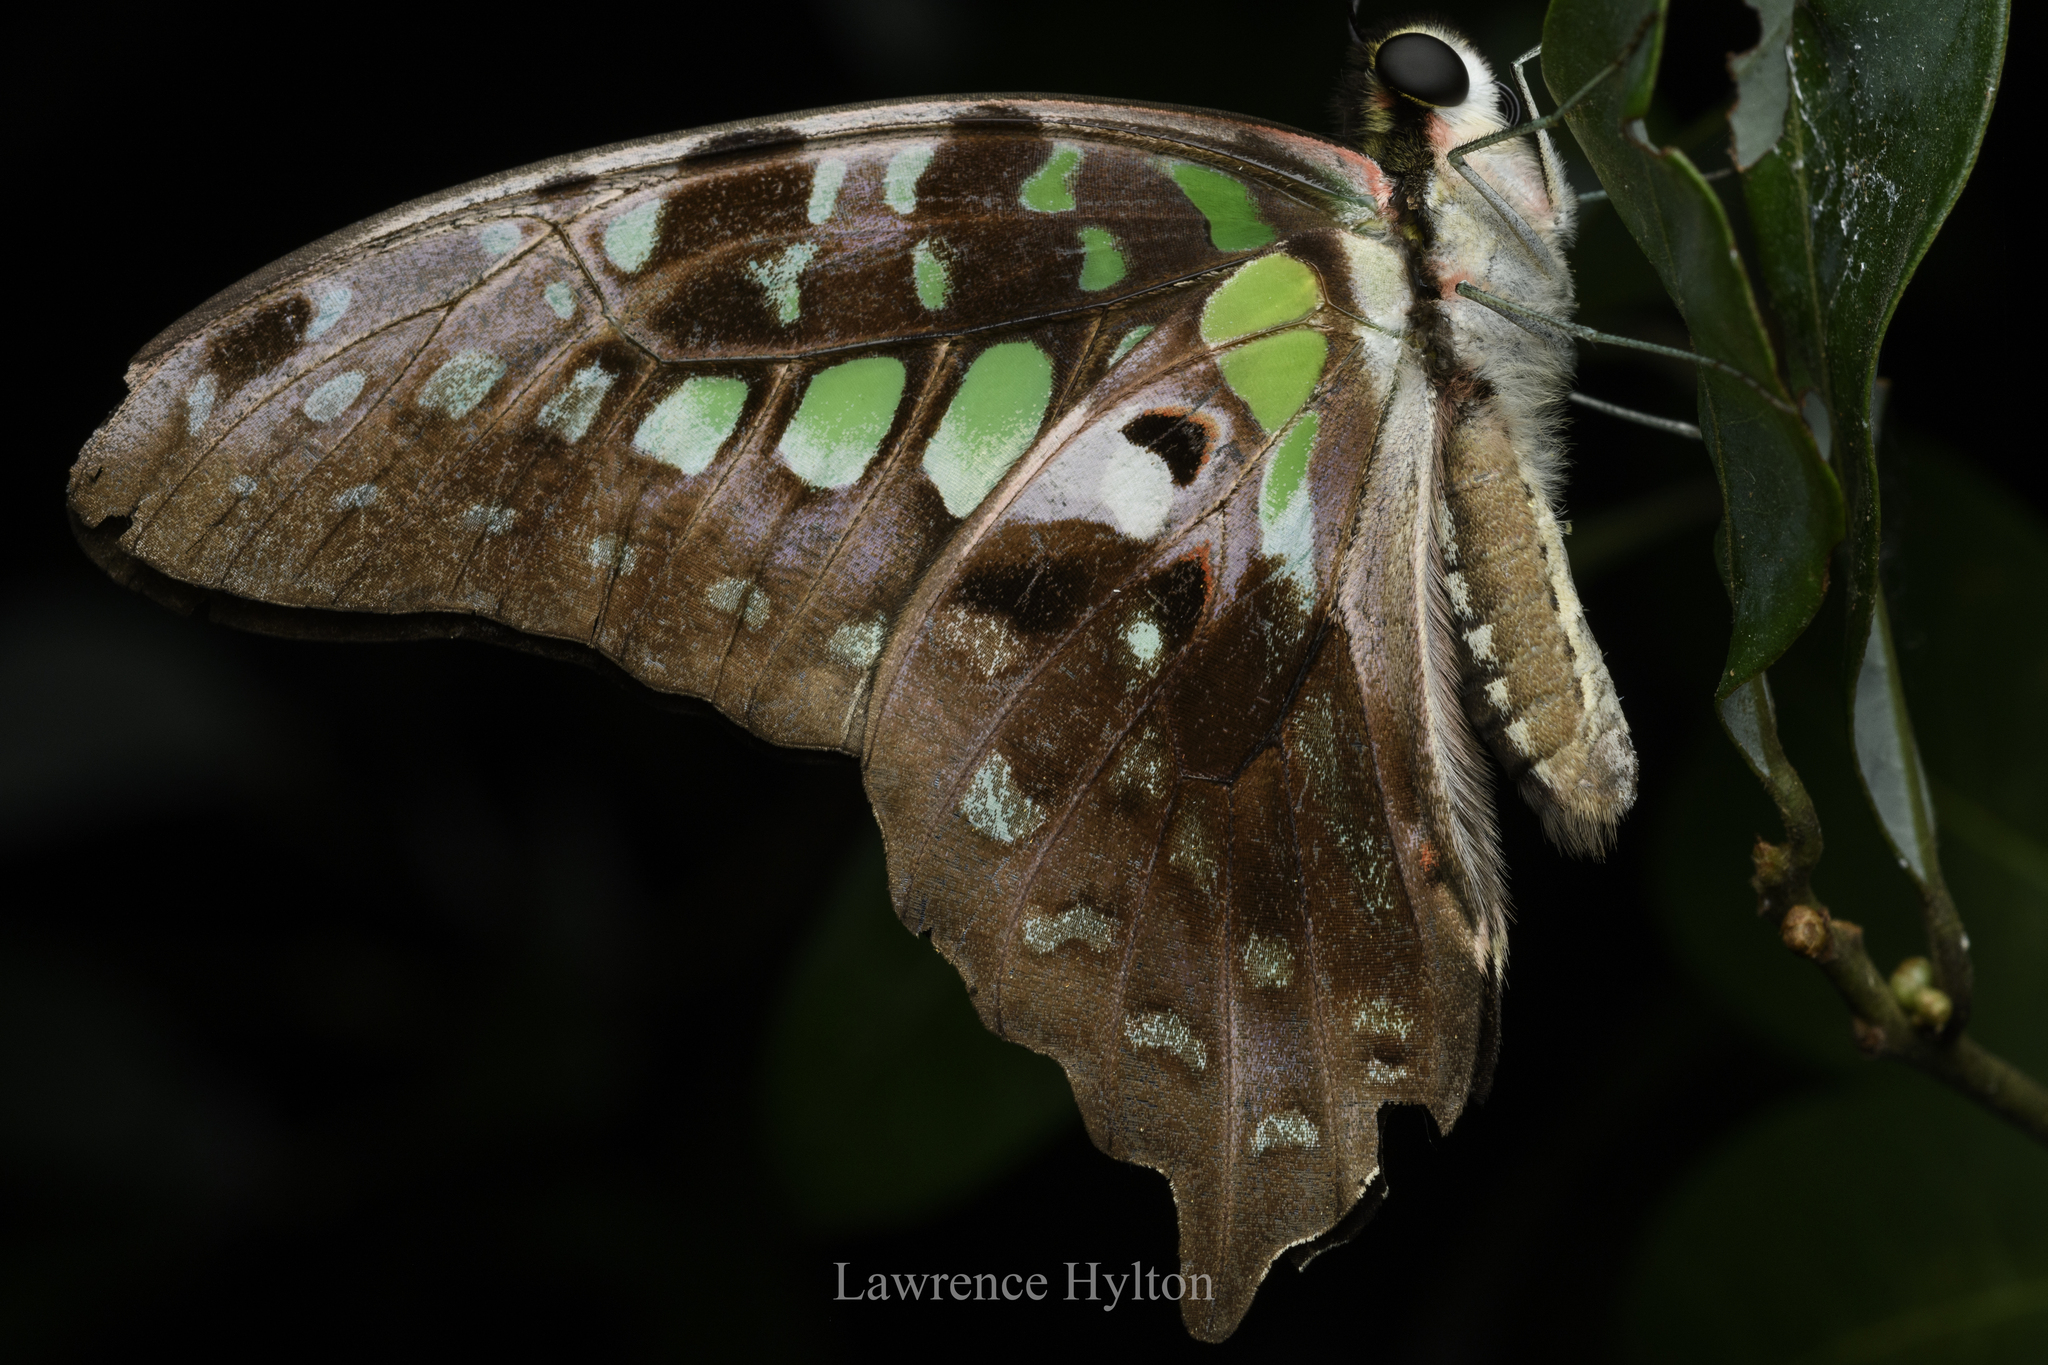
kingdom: Animalia
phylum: Arthropoda
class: Insecta
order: Lepidoptera
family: Papilionidae
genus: Graphium
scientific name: Graphium agamemnon
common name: Tailed jay
